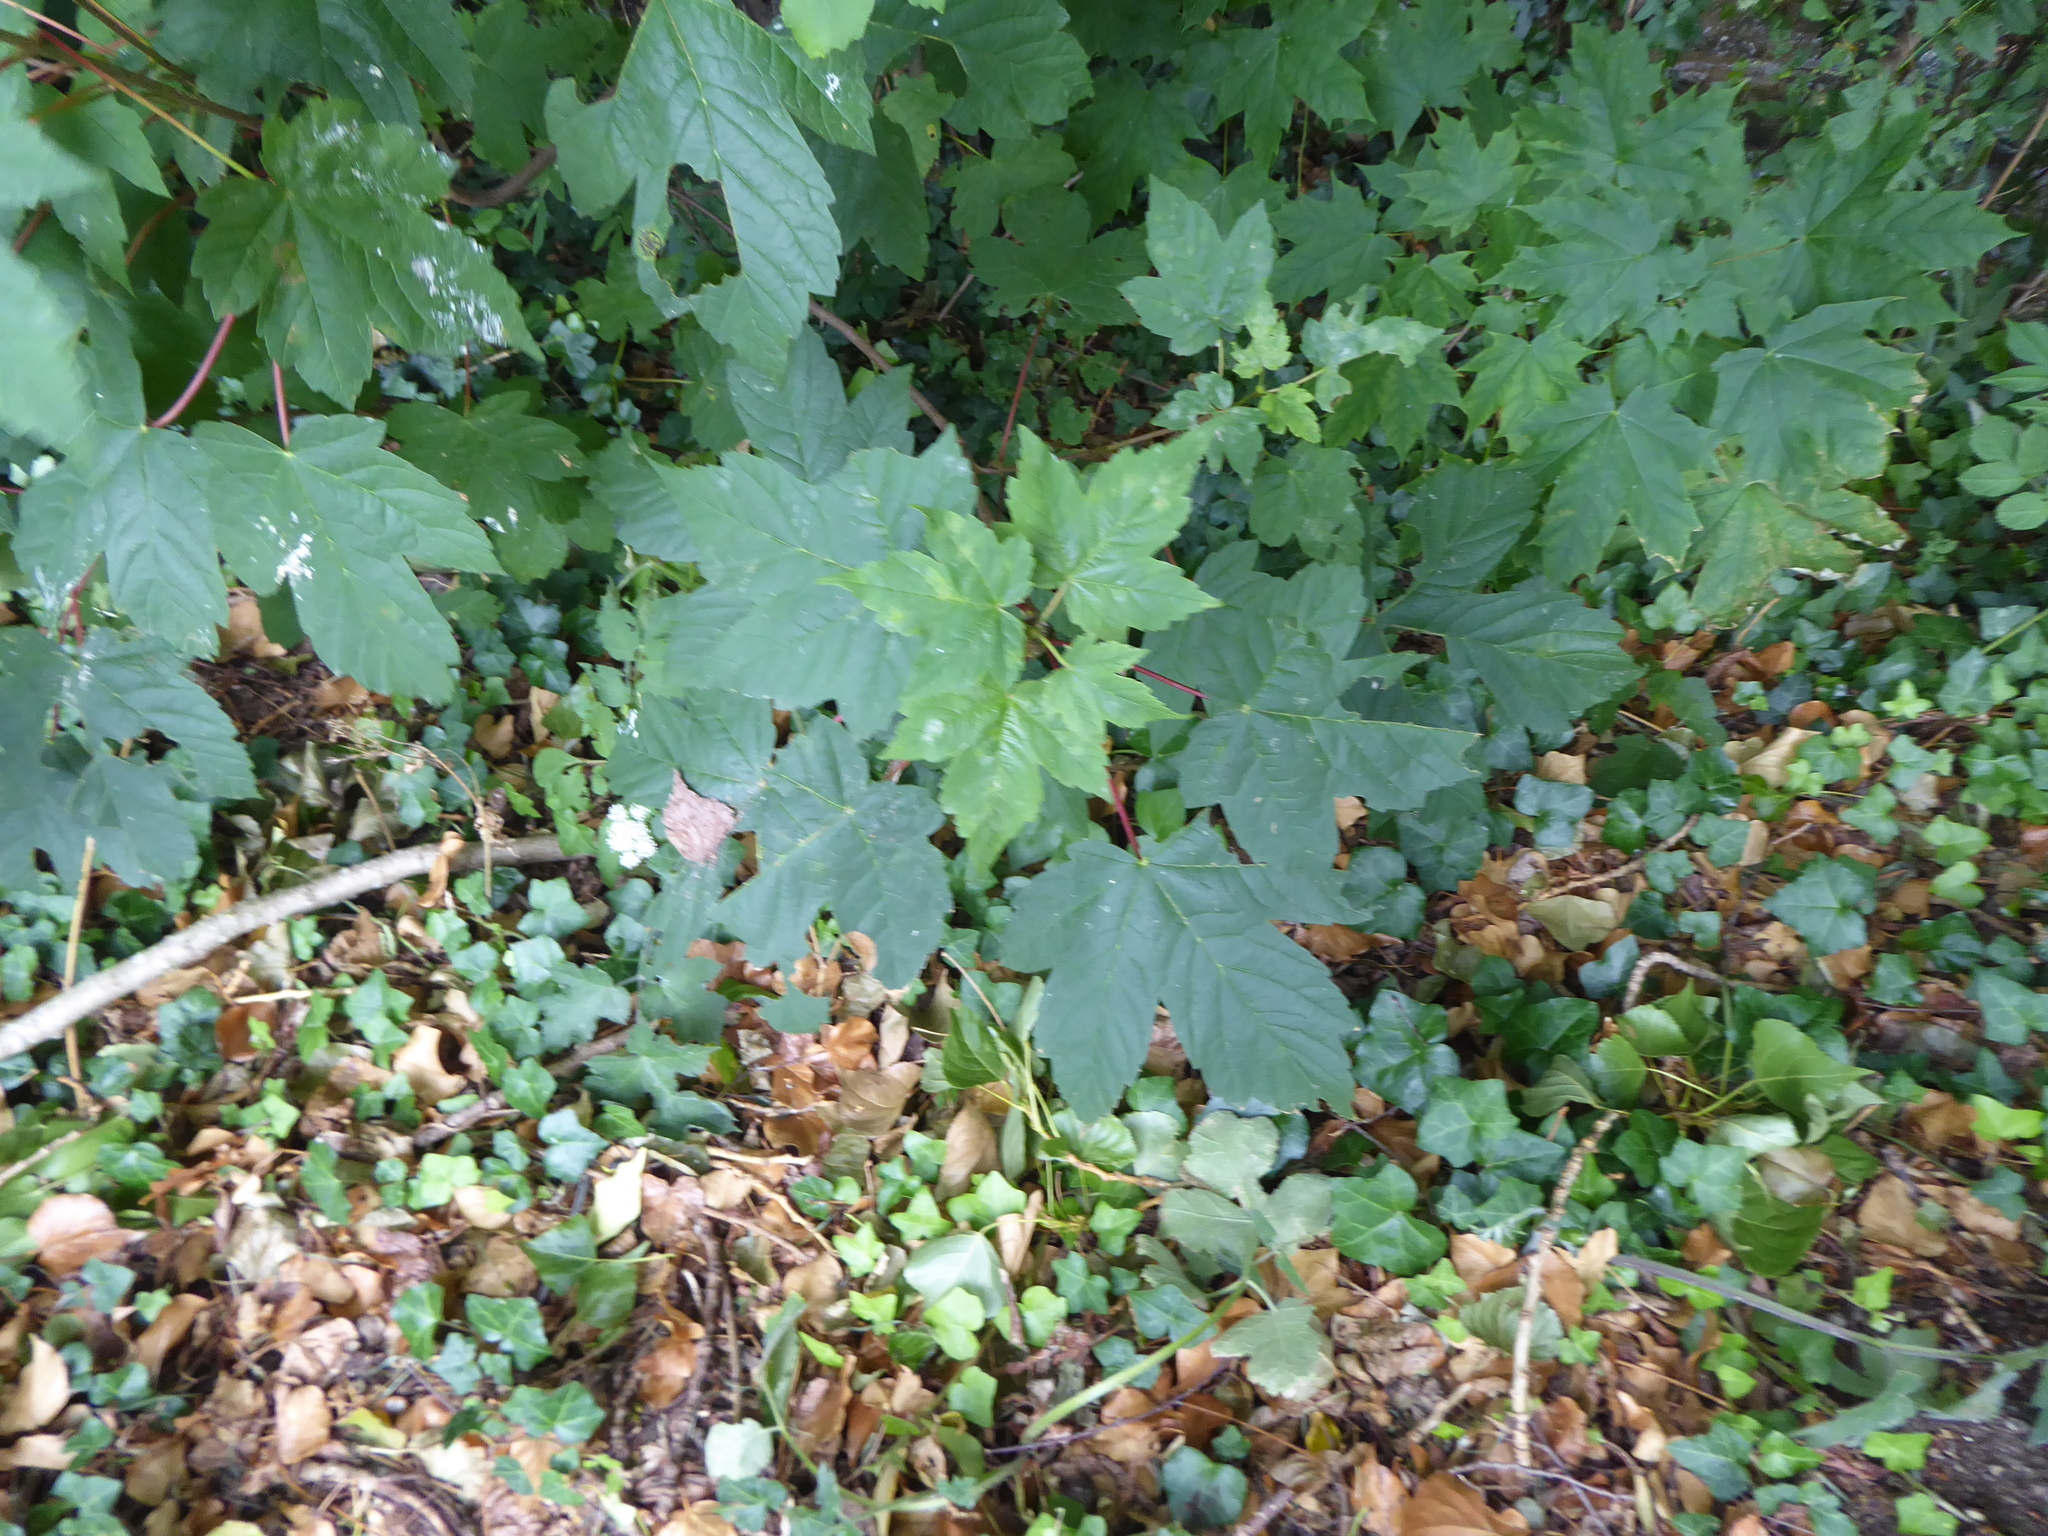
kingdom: Plantae
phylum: Tracheophyta
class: Magnoliopsida
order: Sapindales
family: Sapindaceae
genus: Acer
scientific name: Acer pseudoplatanus
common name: Sycamore
